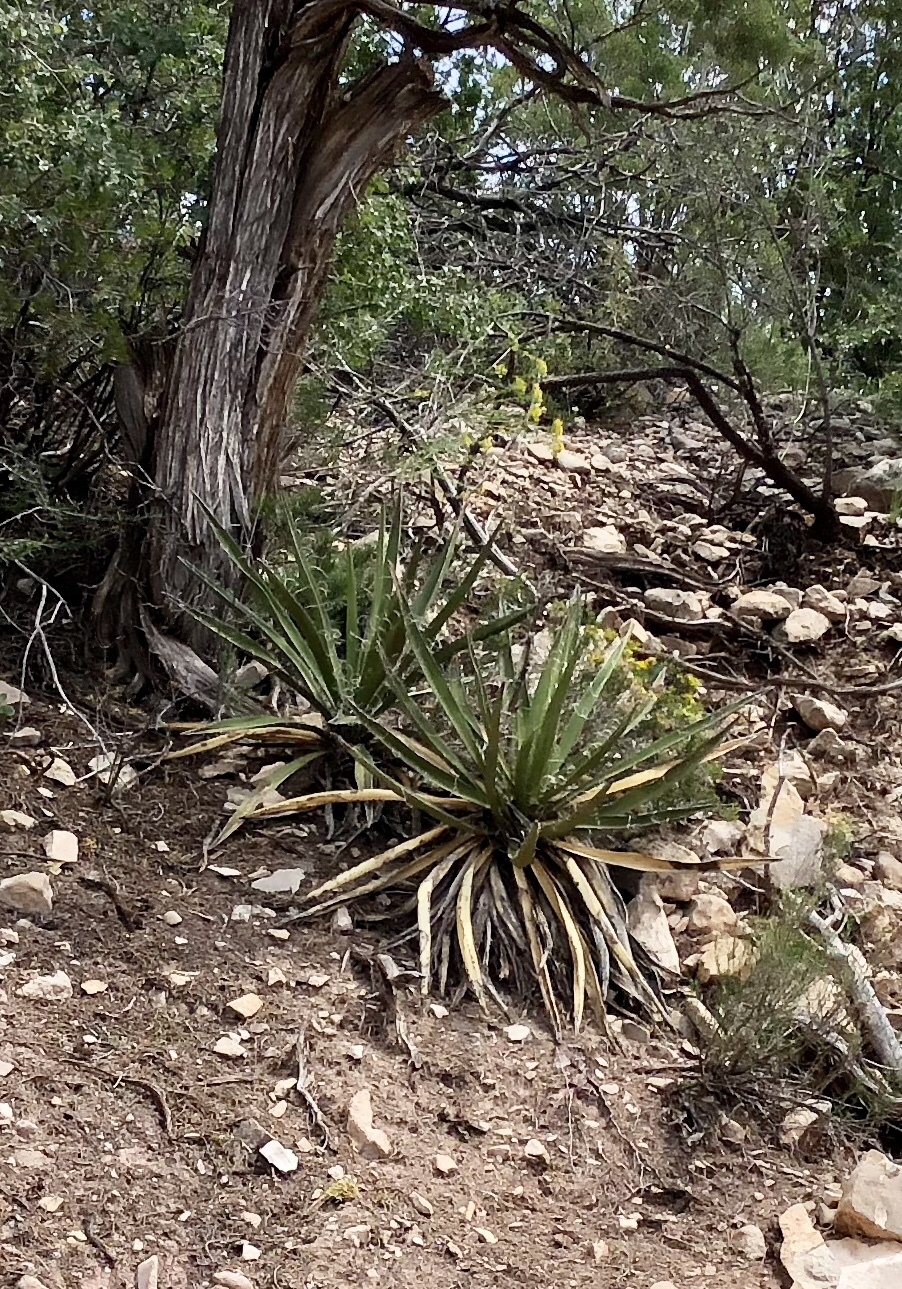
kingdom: Plantae
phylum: Tracheophyta
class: Liliopsida
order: Asparagales
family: Asparagaceae
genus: Yucca
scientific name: Yucca baccata
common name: Banana yucca
